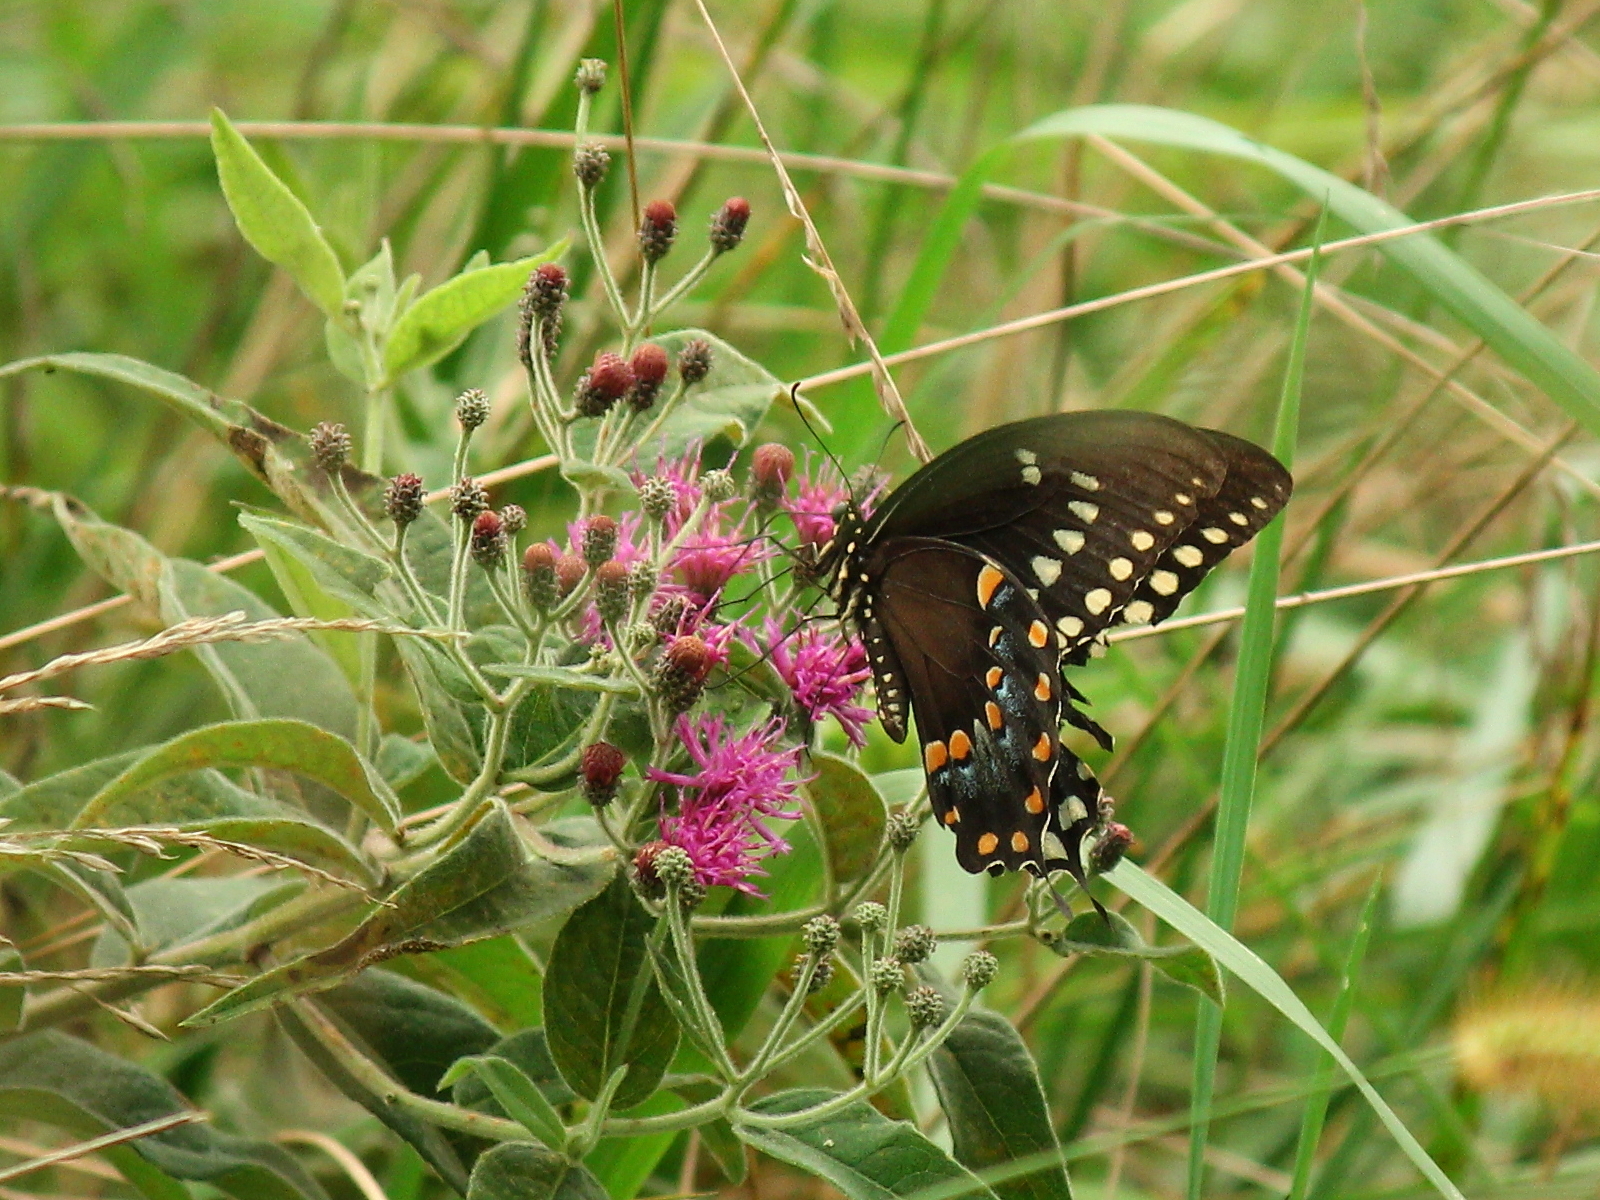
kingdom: Animalia
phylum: Arthropoda
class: Insecta
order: Lepidoptera
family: Papilionidae
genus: Papilio
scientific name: Papilio troilus
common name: Spicebush swallowtail
